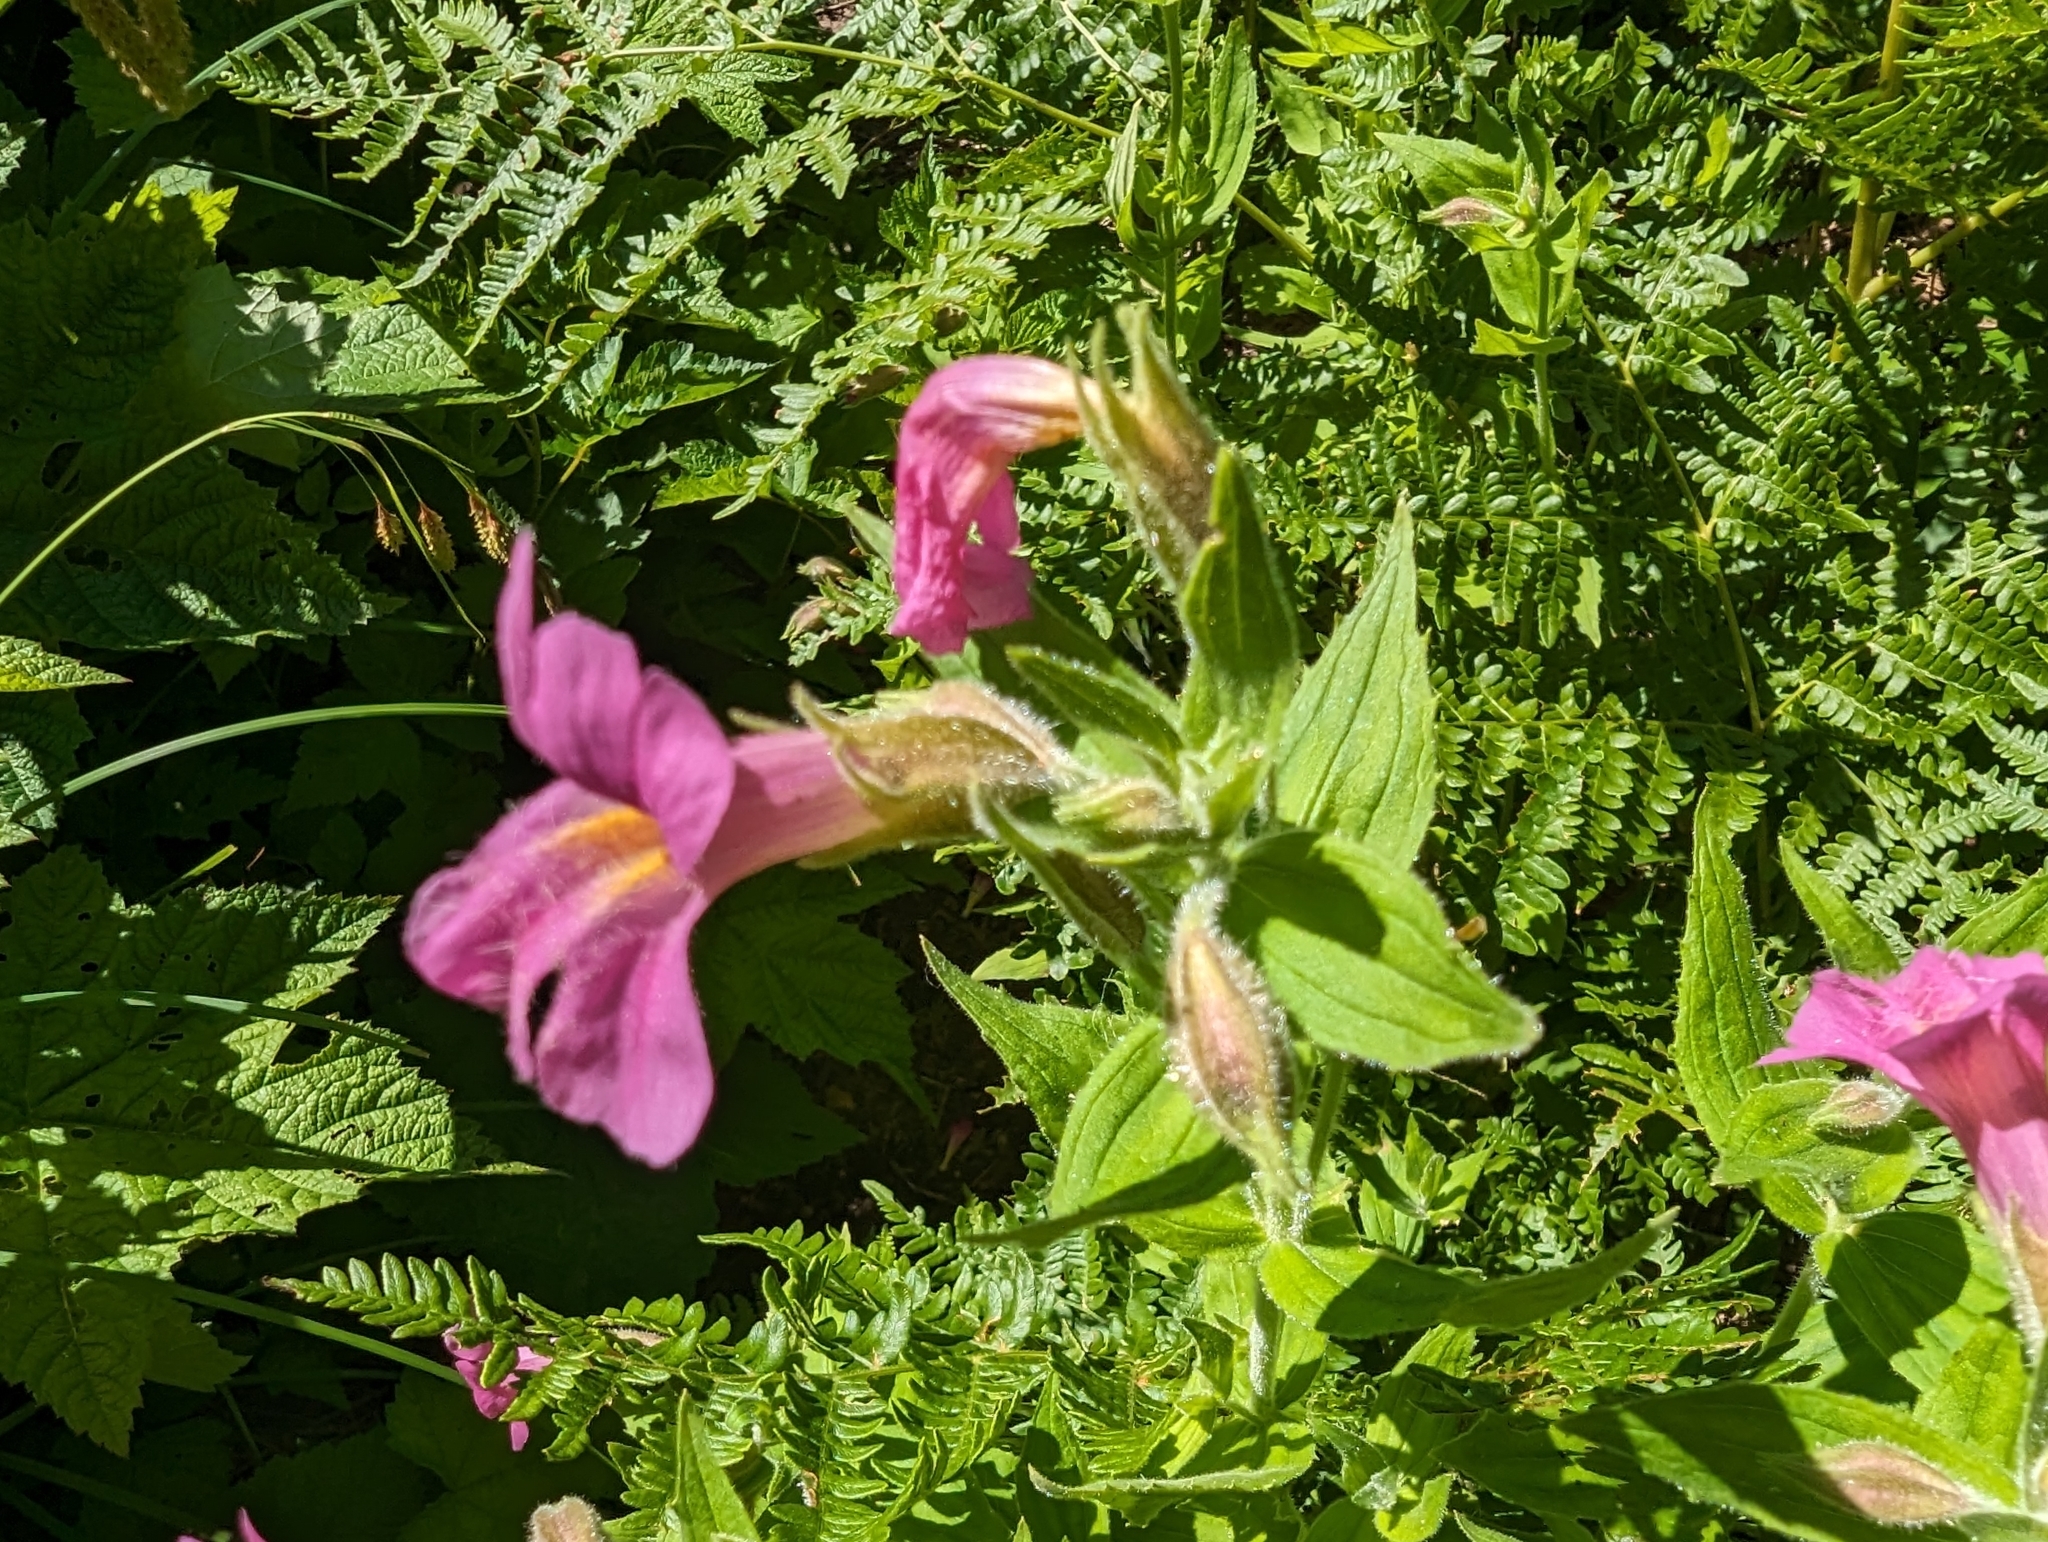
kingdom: Plantae
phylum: Tracheophyta
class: Magnoliopsida
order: Lamiales
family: Phrymaceae
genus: Erythranthe
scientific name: Erythranthe lewisii
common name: Lewis's monkey-flower
